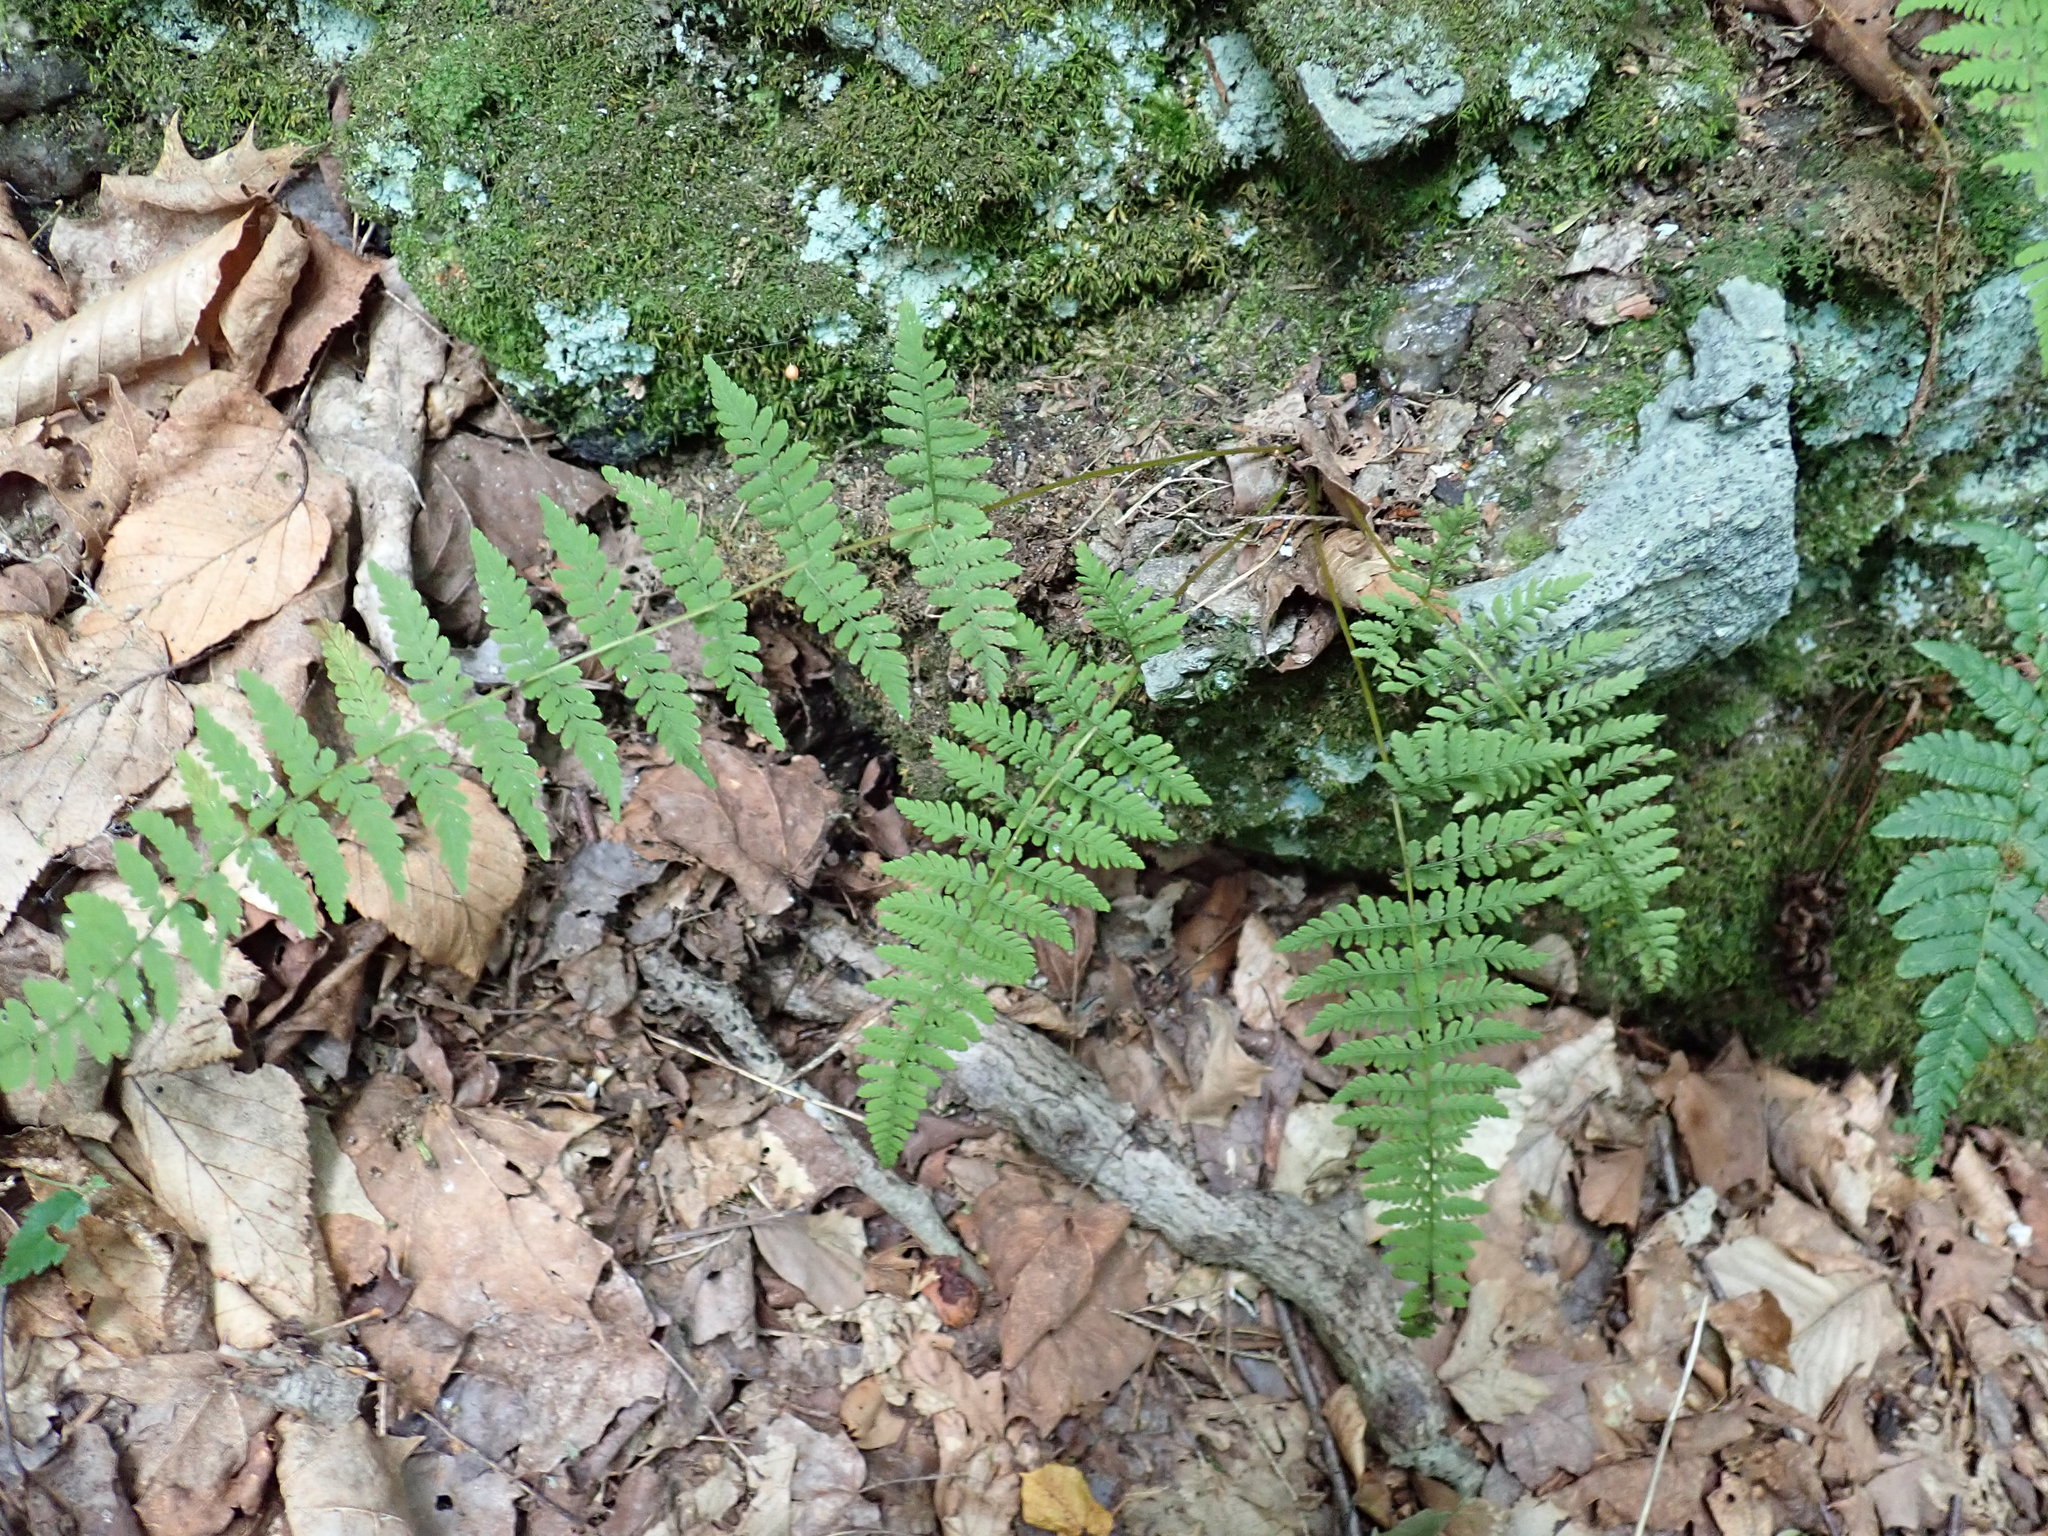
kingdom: Plantae
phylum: Tracheophyta
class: Polypodiopsida
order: Polypodiales
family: Cystopteridaceae
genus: Cystopteris
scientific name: Cystopteris bulbifera
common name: Bulblet bladder fern
